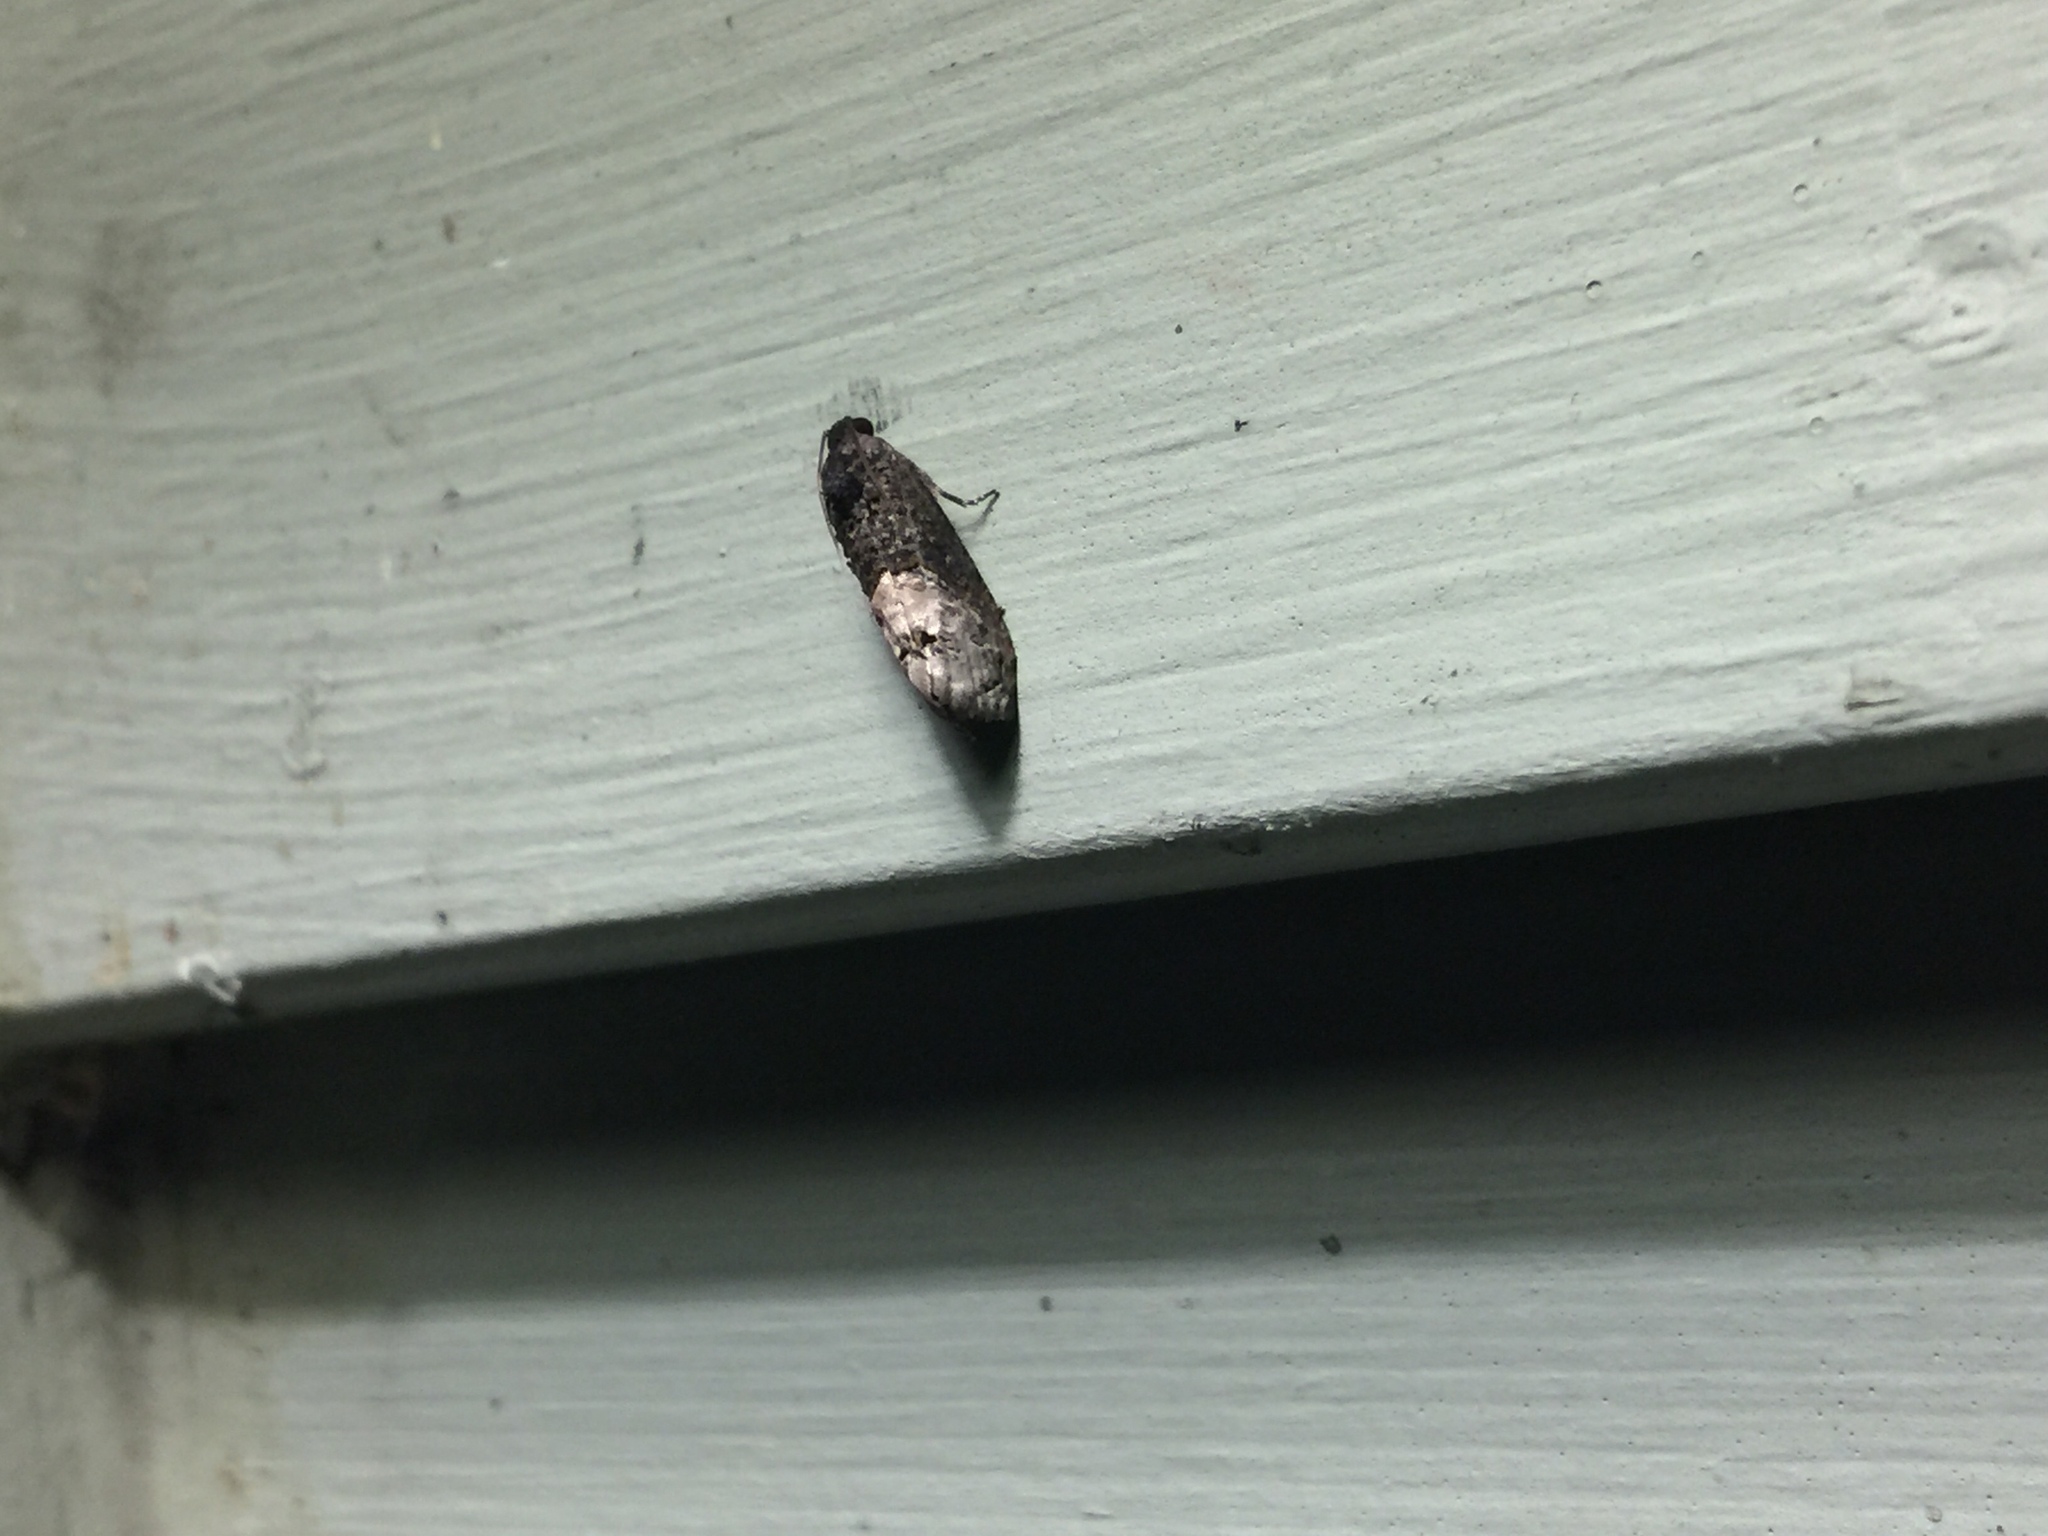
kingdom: Animalia
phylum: Arthropoda
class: Insecta
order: Lepidoptera
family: Tortricidae
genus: Ecdytolopha
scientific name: Ecdytolopha insiticiana
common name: Locust twig borer moth
